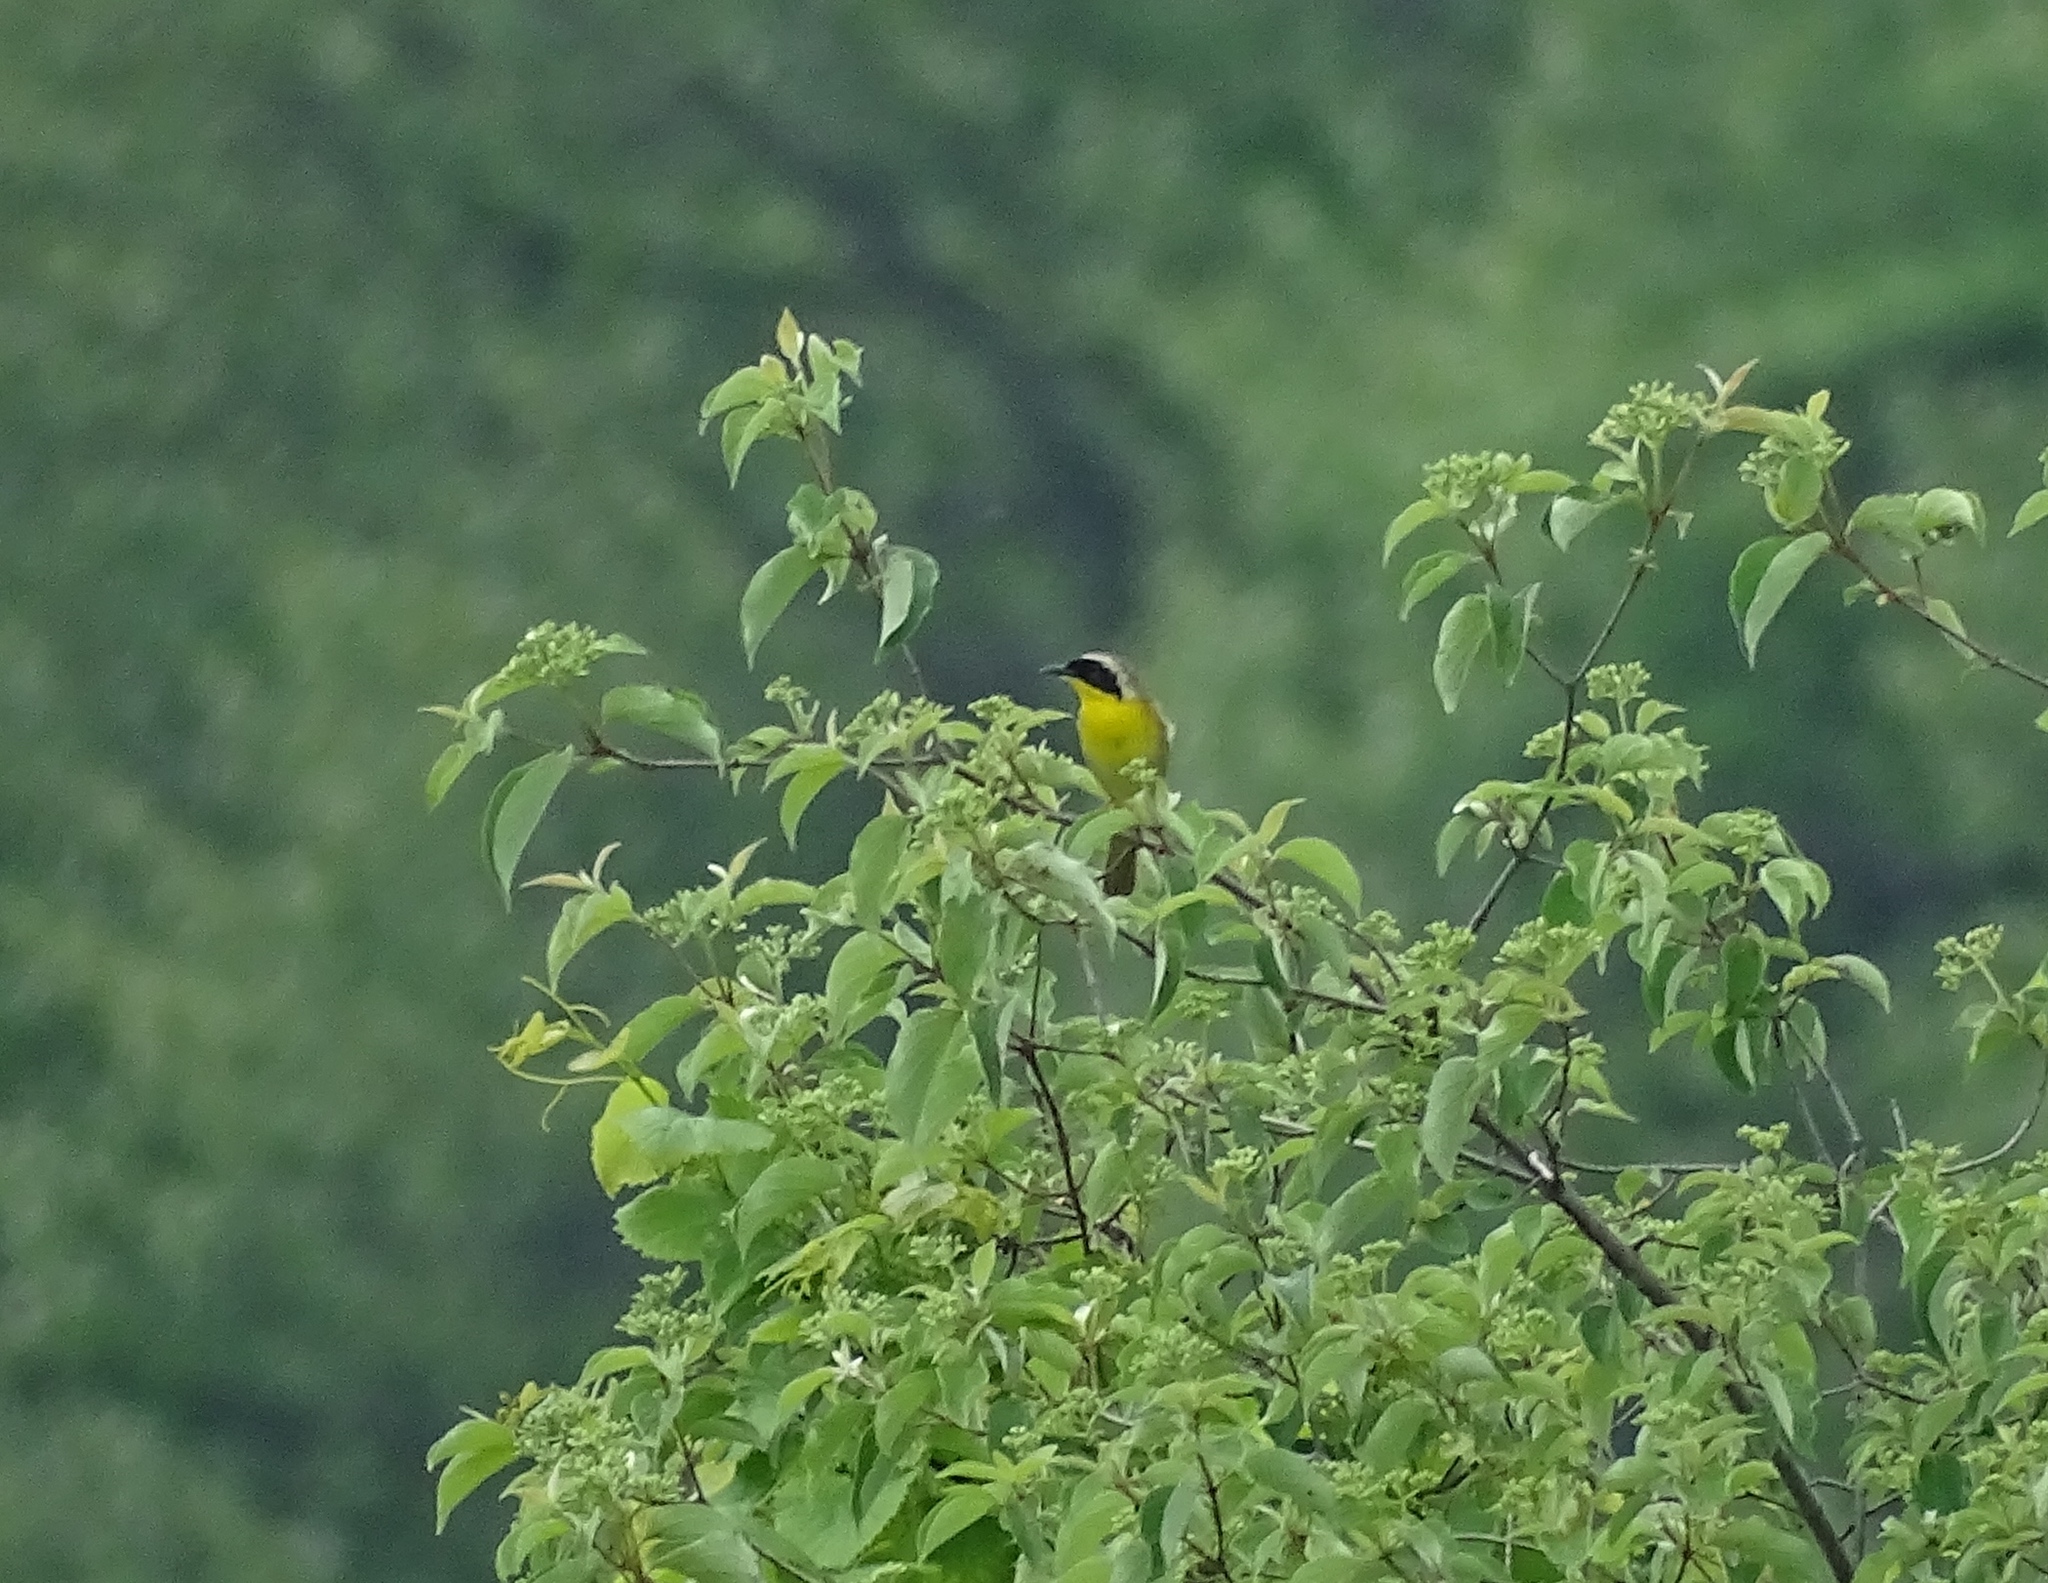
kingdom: Animalia
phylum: Chordata
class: Aves
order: Passeriformes
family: Parulidae
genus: Geothlypis
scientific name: Geothlypis trichas
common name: Common yellowthroat
